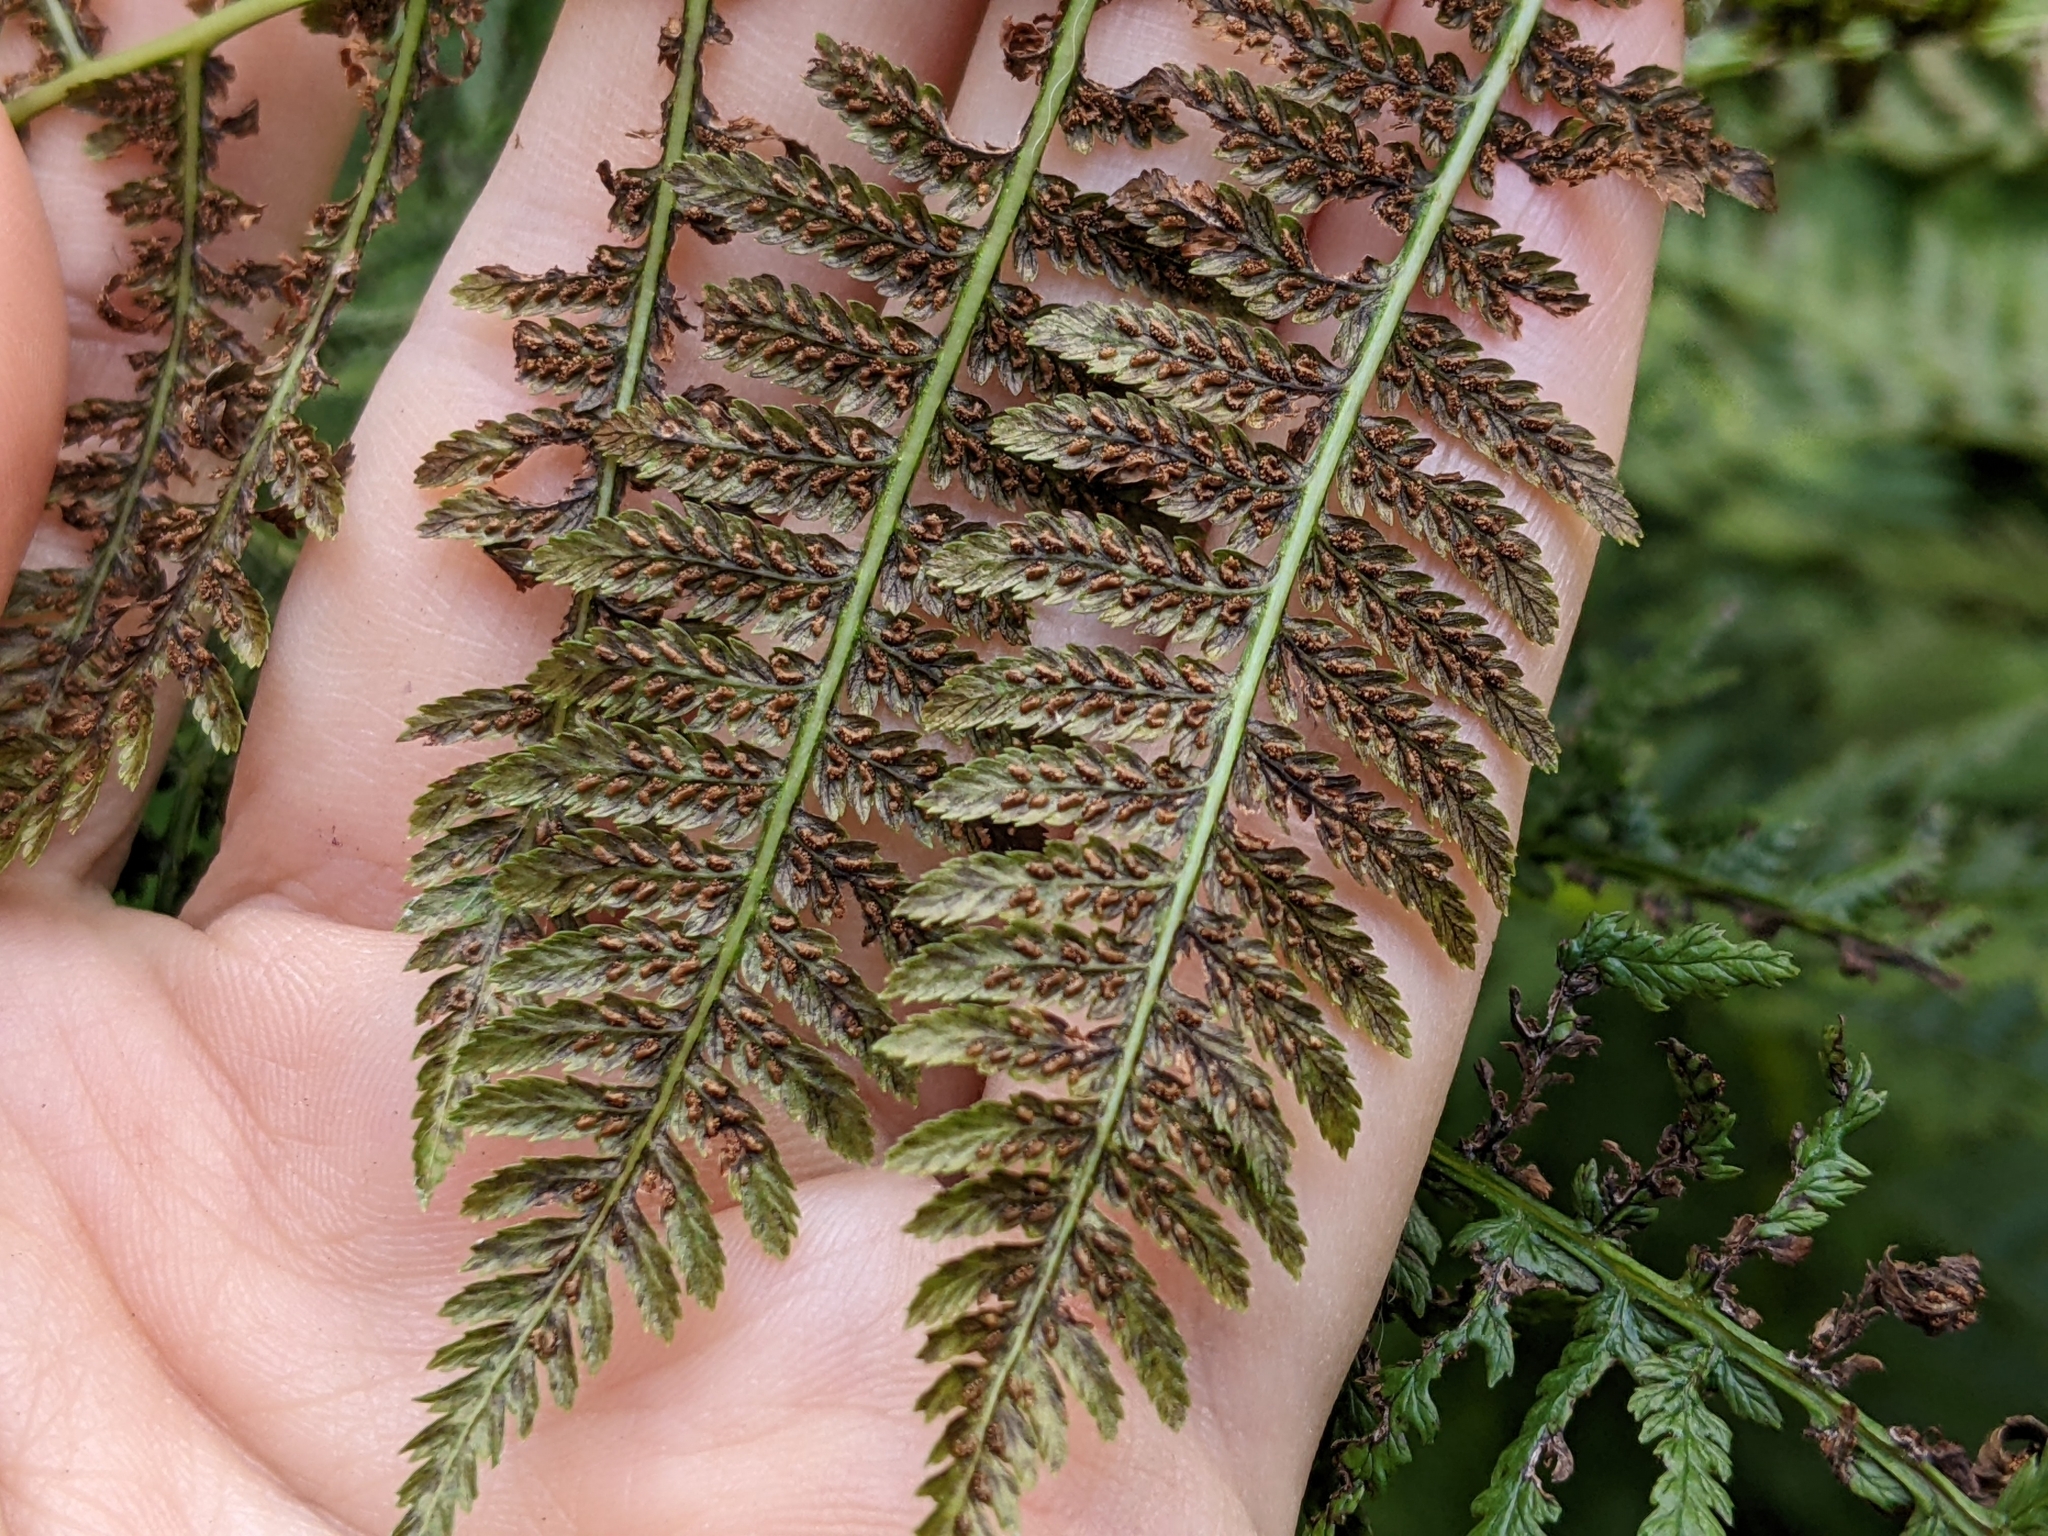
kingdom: Plantae
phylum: Tracheophyta
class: Polypodiopsida
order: Polypodiales
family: Athyriaceae
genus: Athyrium
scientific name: Athyrium angustum
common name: Northern lady fern
